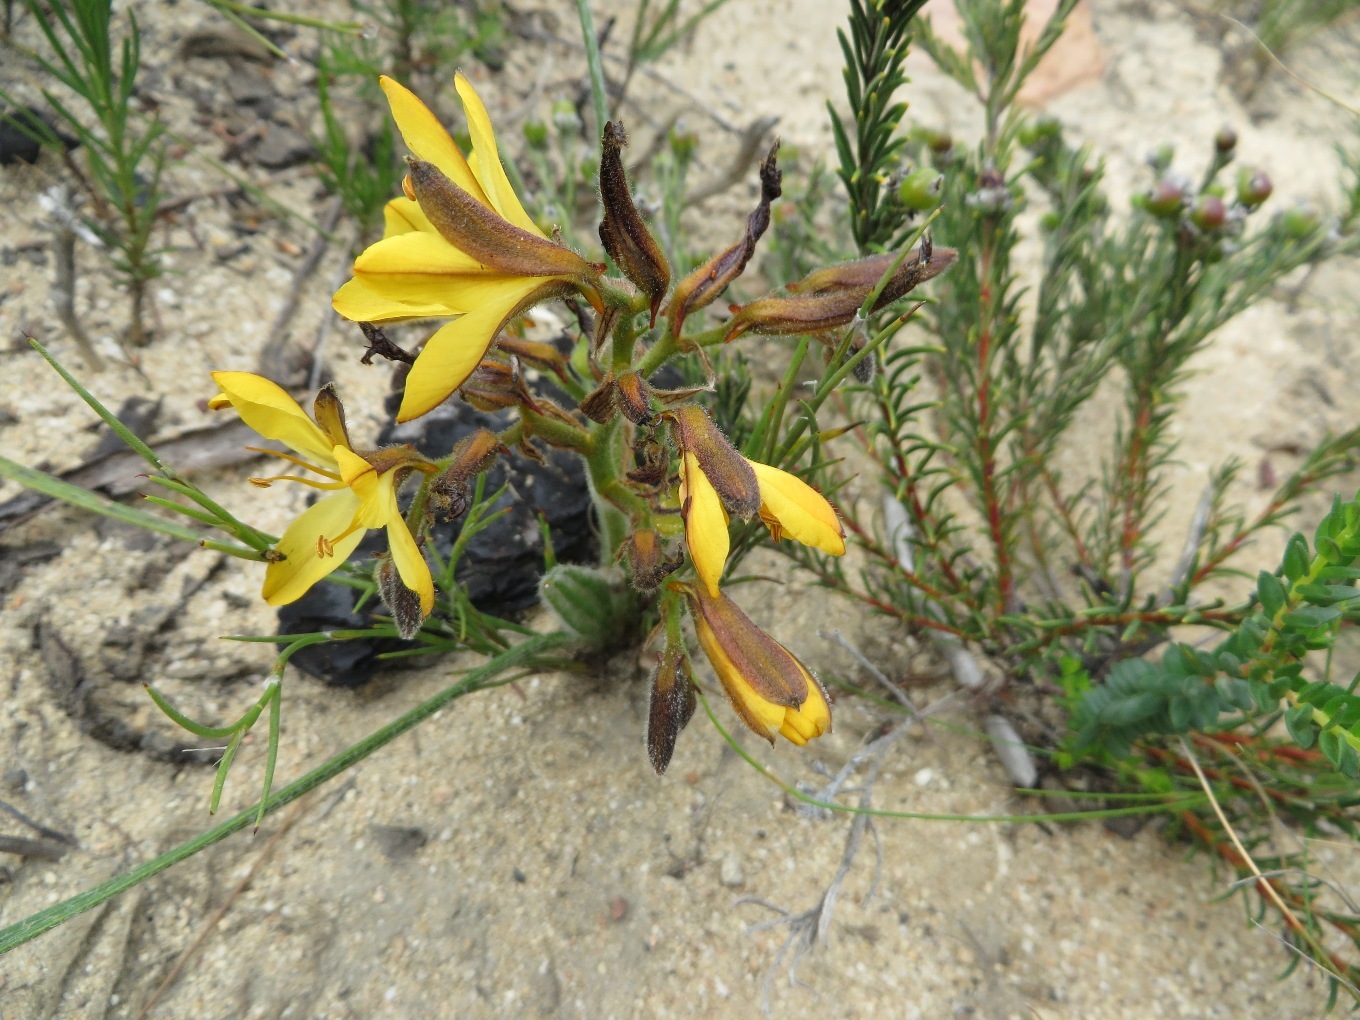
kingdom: Plantae
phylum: Tracheophyta
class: Liliopsida
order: Commelinales
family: Haemodoraceae
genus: Wachendorfia
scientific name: Wachendorfia paniculata
